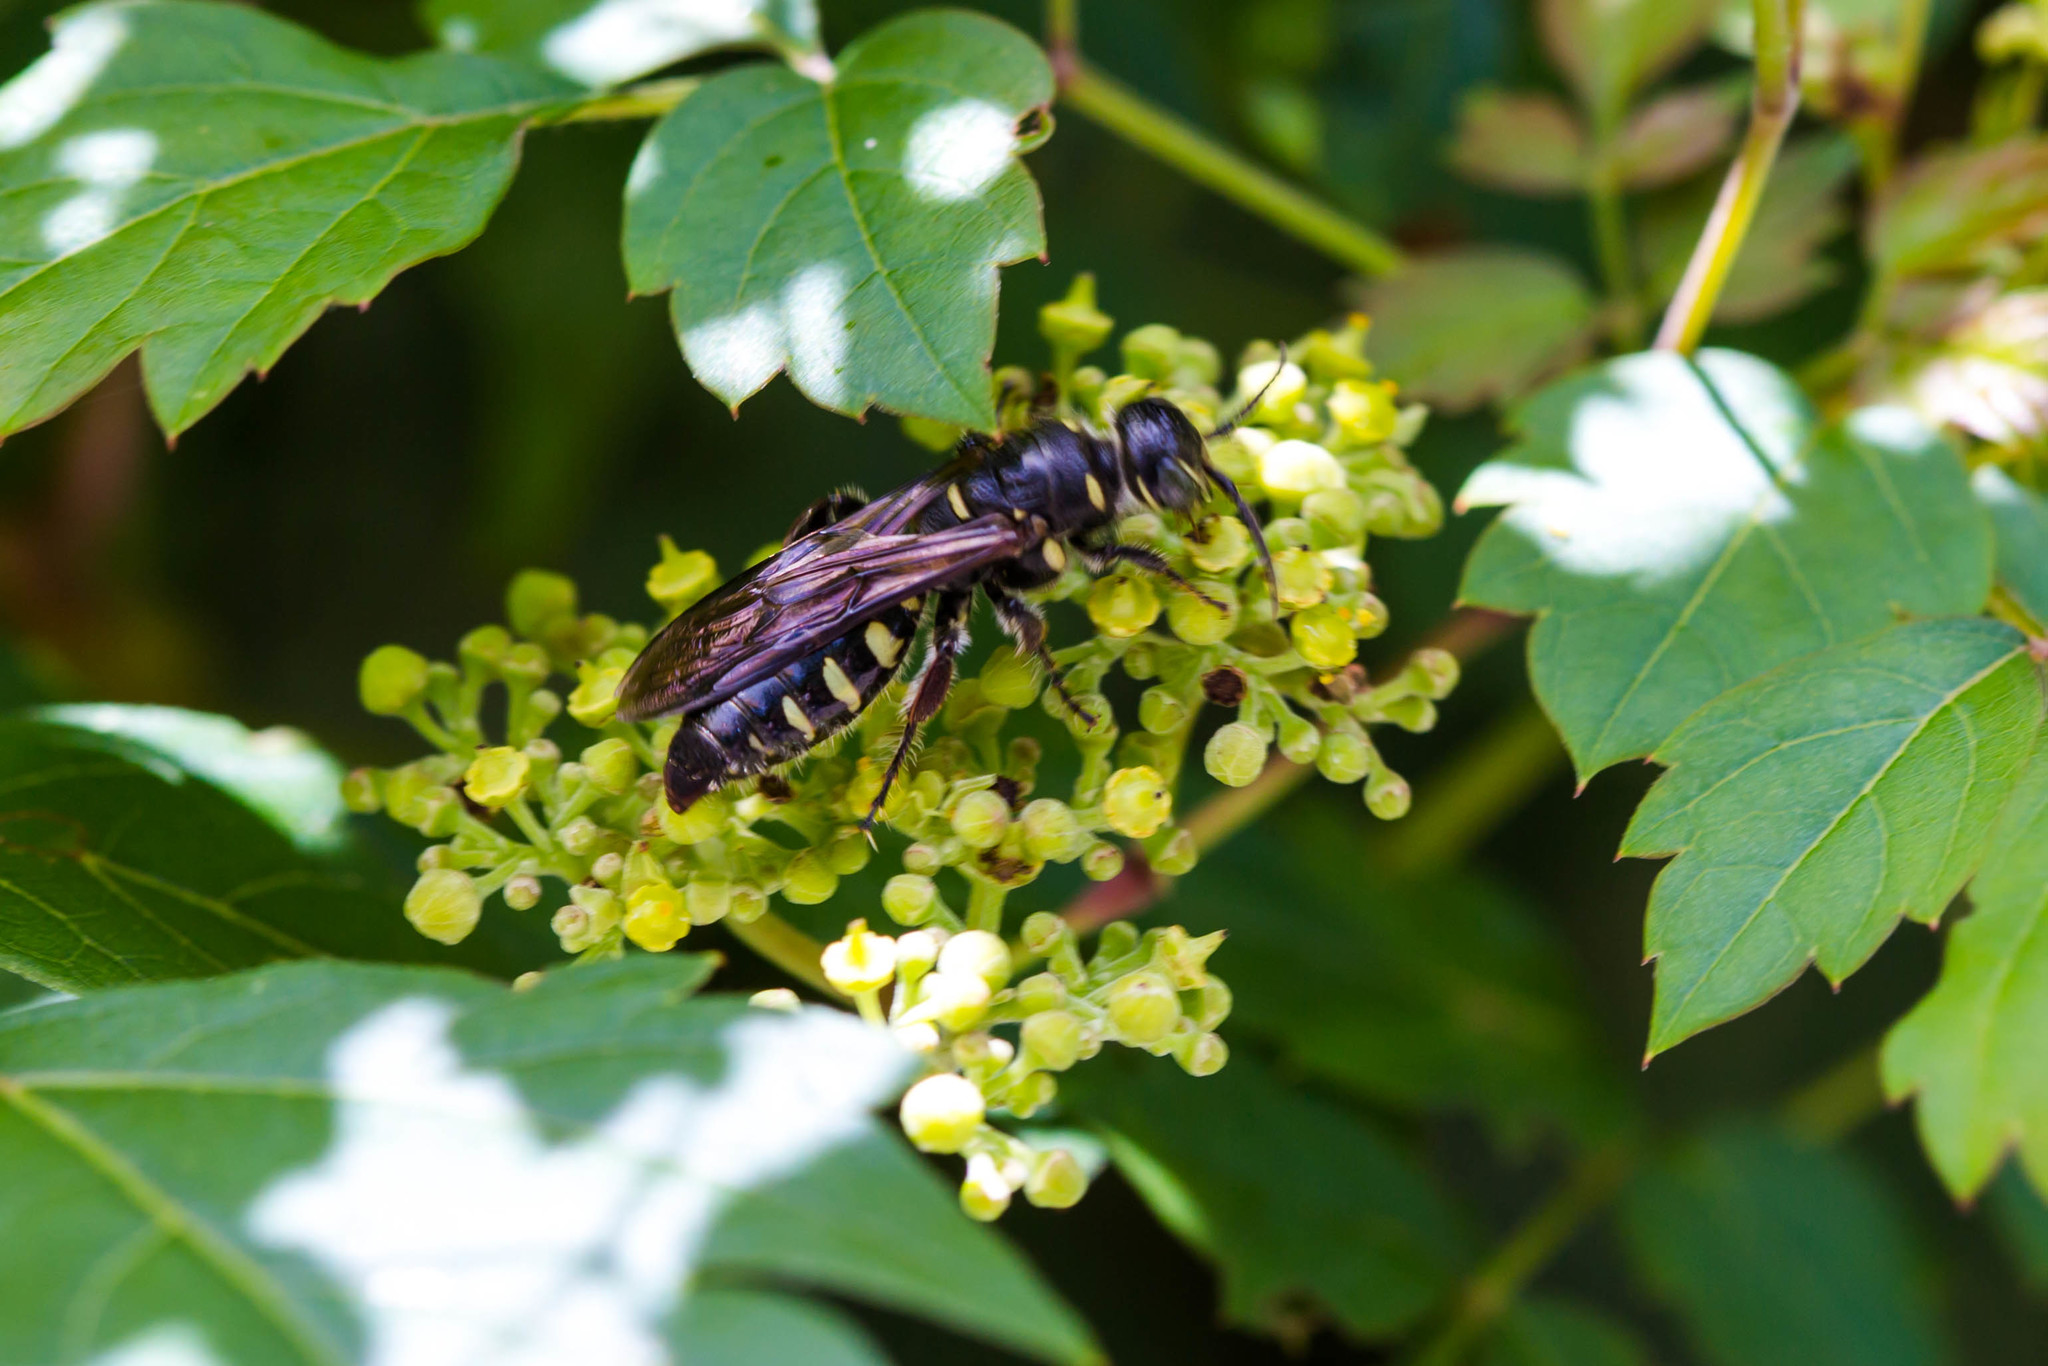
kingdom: Animalia
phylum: Arthropoda
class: Insecta
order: Hymenoptera
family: Tiphiidae
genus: Myzinum
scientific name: Myzinum obscurum
